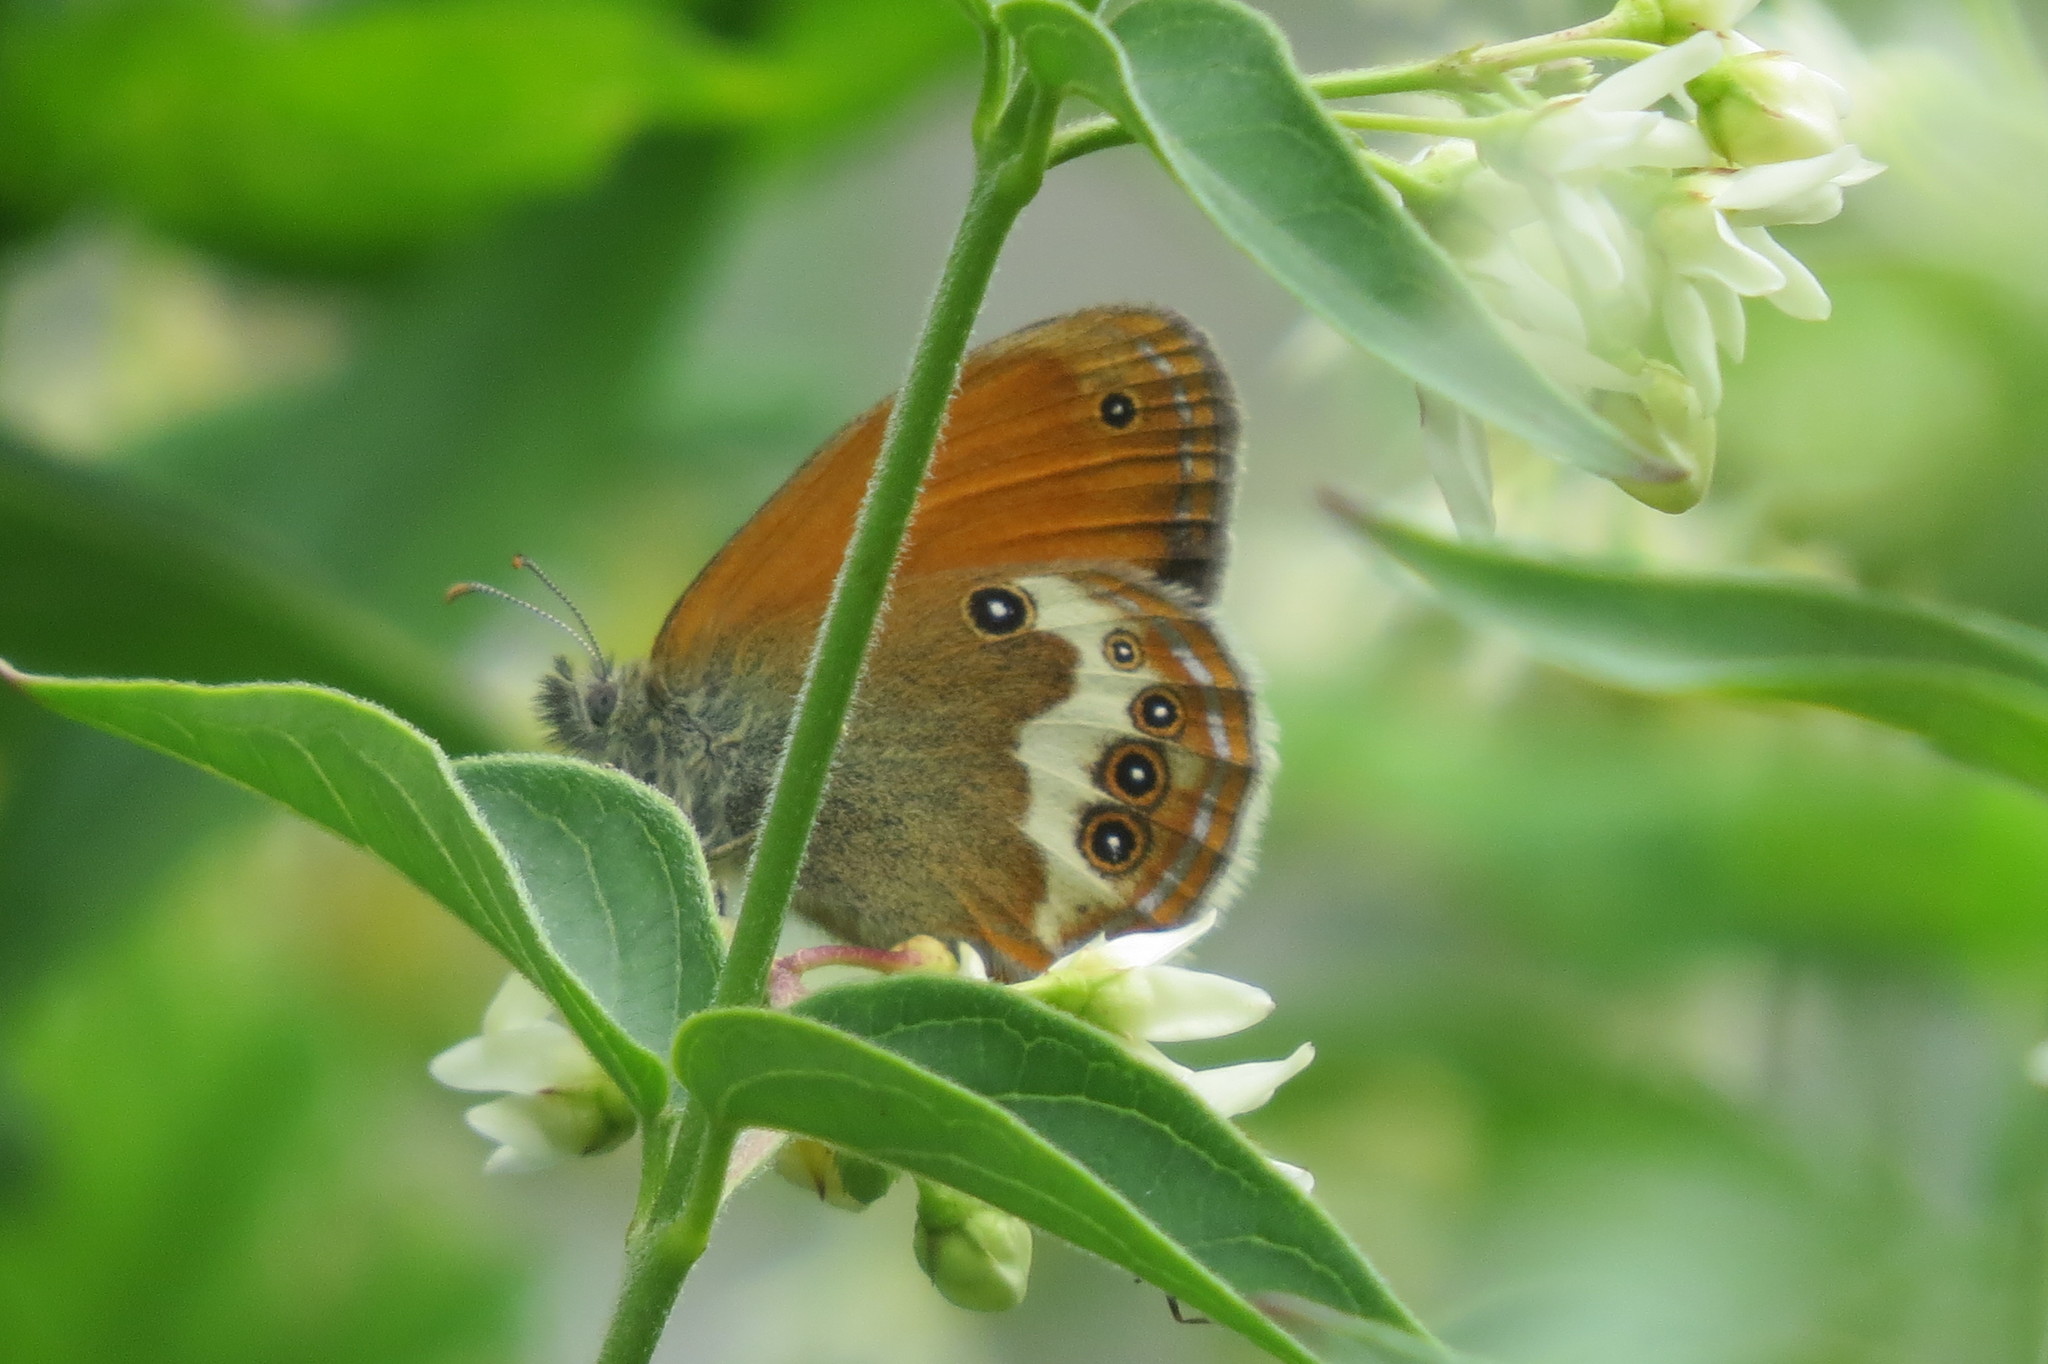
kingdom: Animalia
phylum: Arthropoda
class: Insecta
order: Lepidoptera
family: Nymphalidae
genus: Coenonympha
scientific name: Coenonympha arcania
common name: Pearly heath
